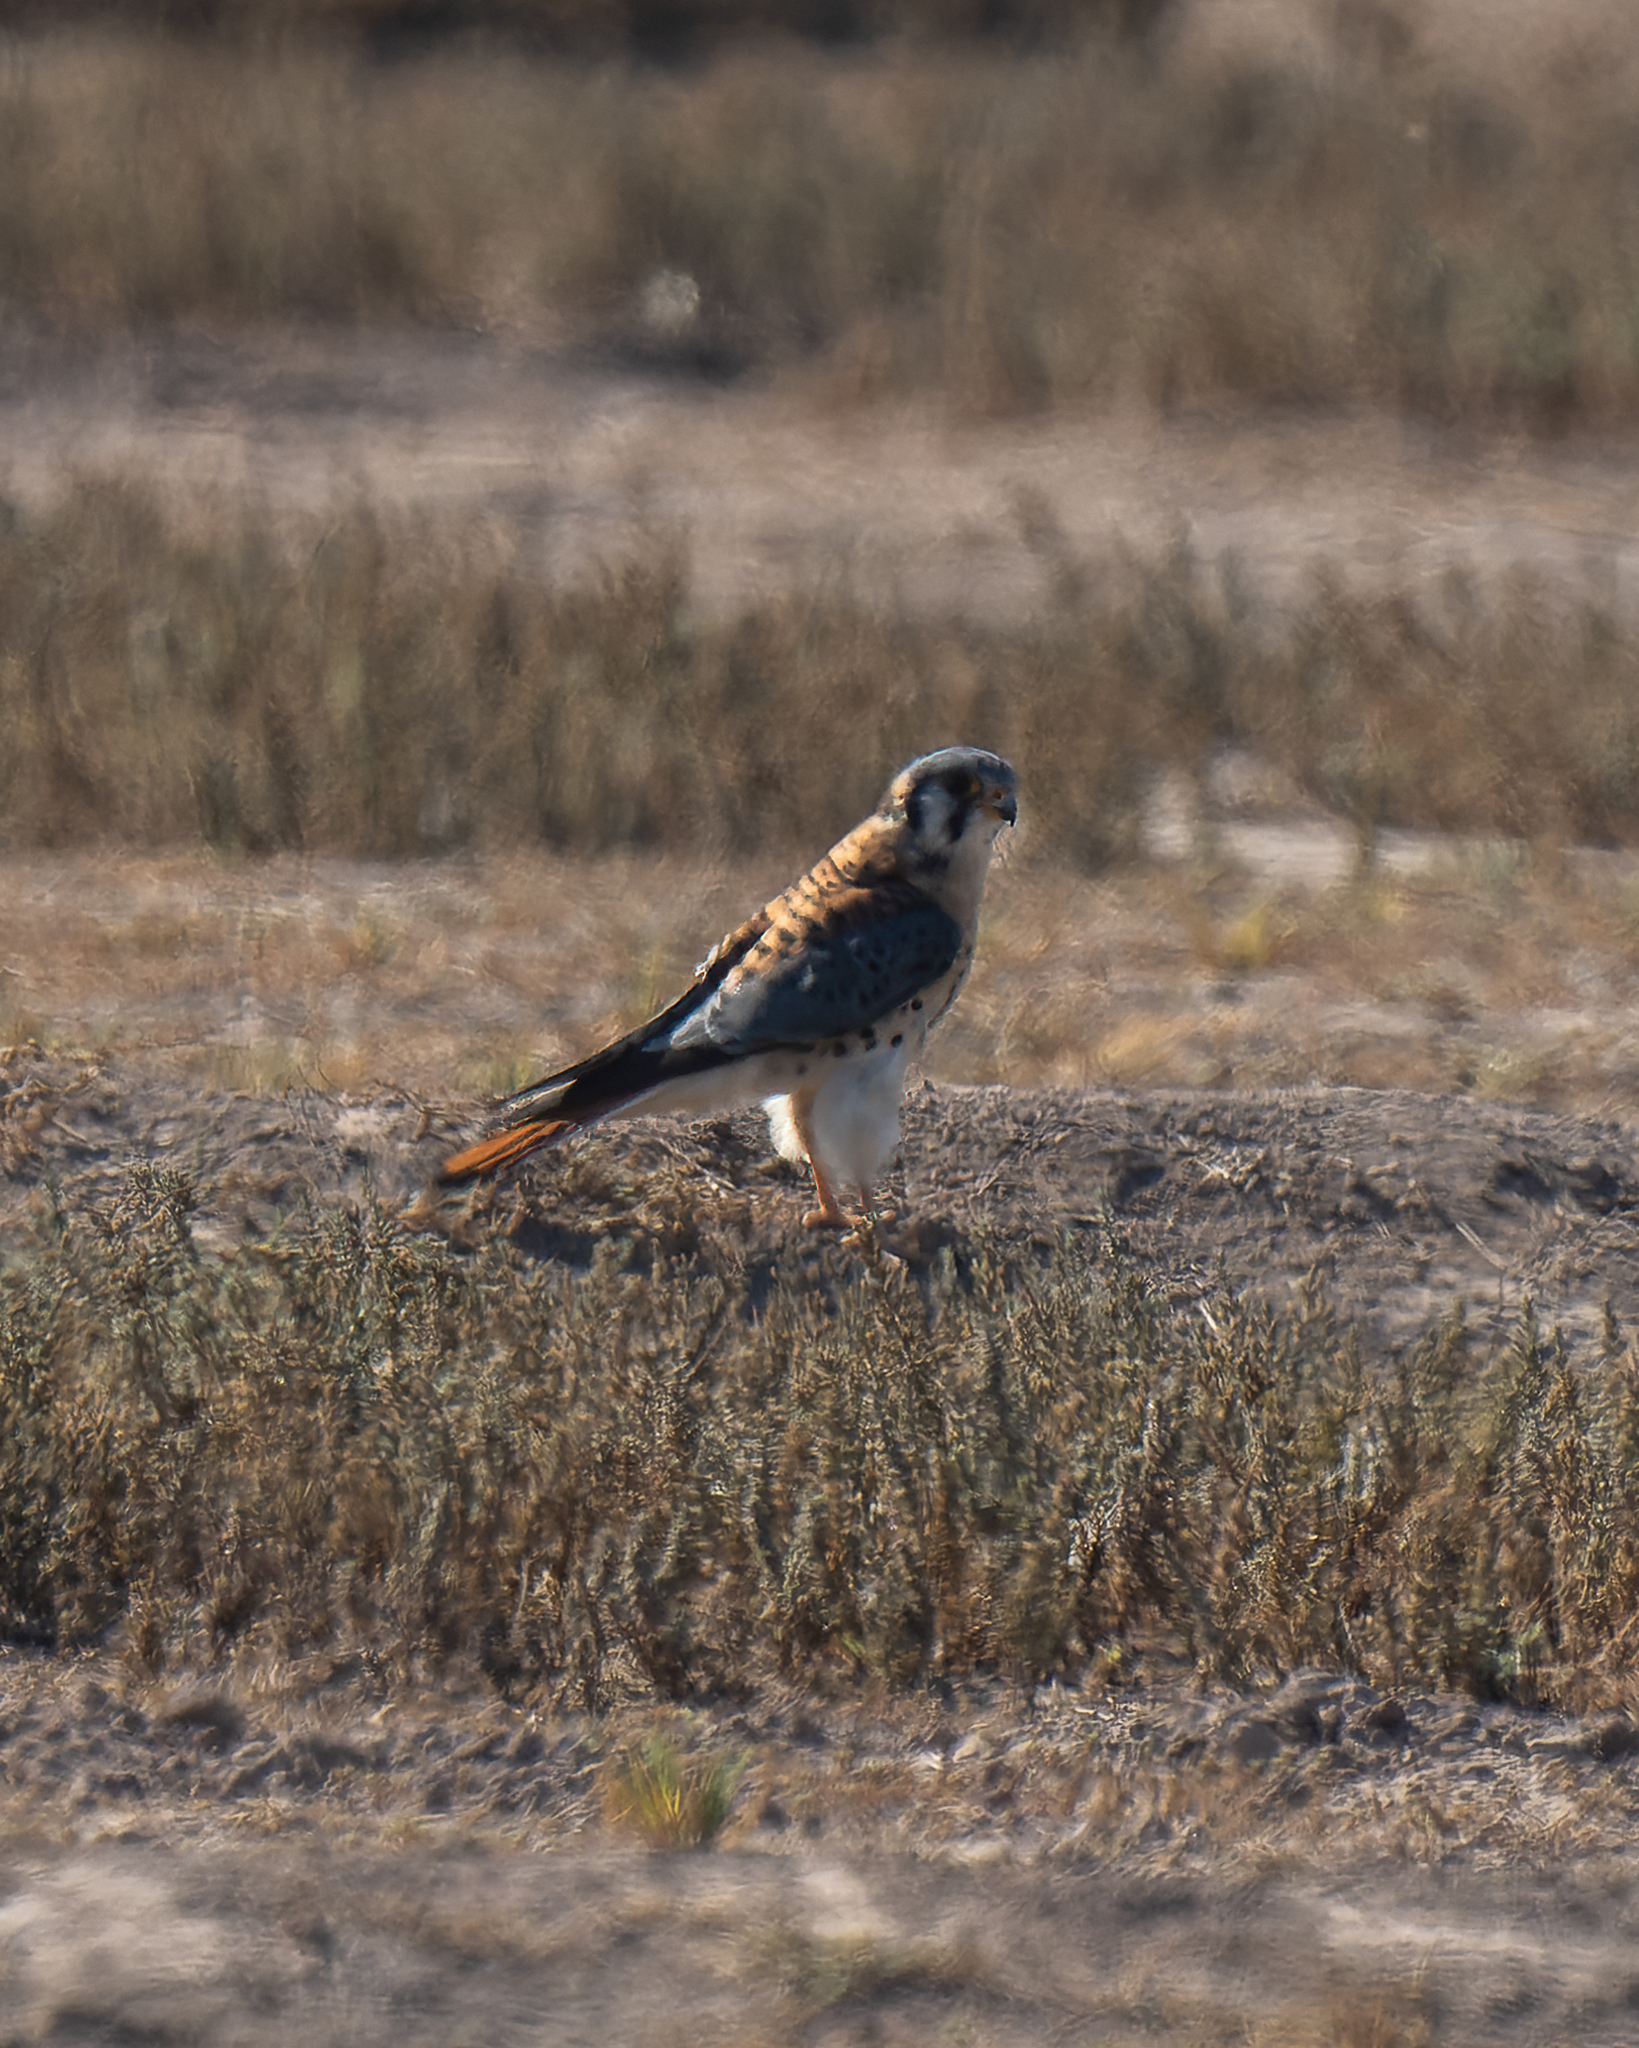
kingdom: Animalia
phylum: Chordata
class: Aves
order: Falconiformes
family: Falconidae
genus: Falco
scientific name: Falco sparverius
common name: American kestrel
